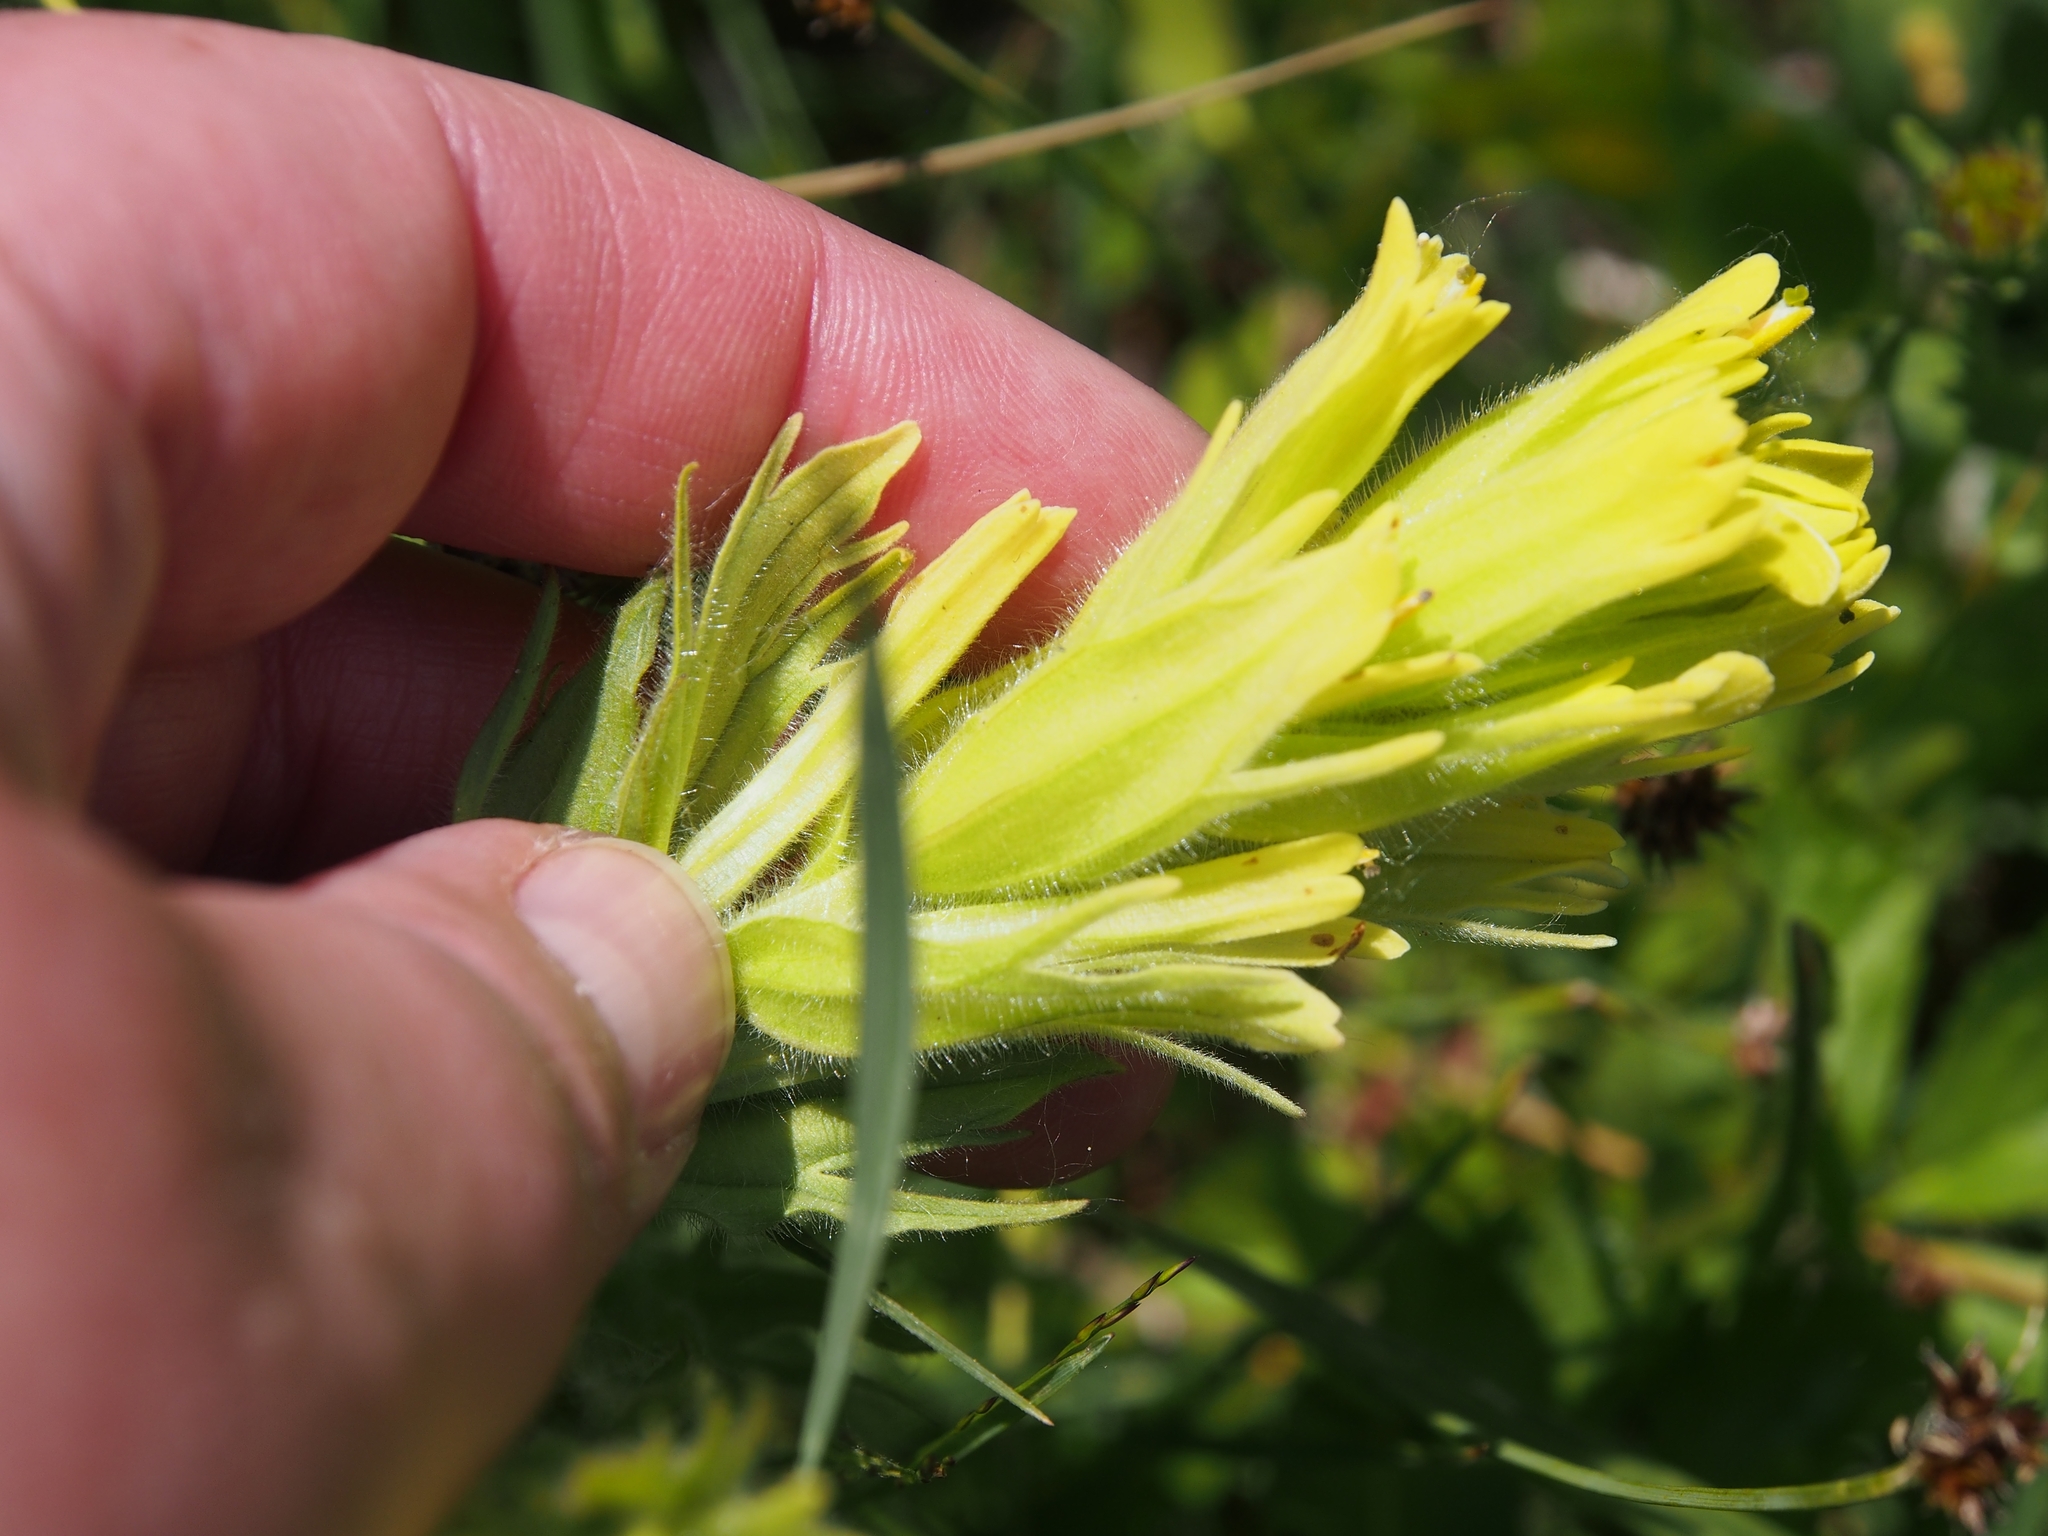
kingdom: Plantae
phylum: Tracheophyta
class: Magnoliopsida
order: Lamiales
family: Orobanchaceae
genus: Castilleja
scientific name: Castilleja cusickii
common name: Cusick's paintbrush
